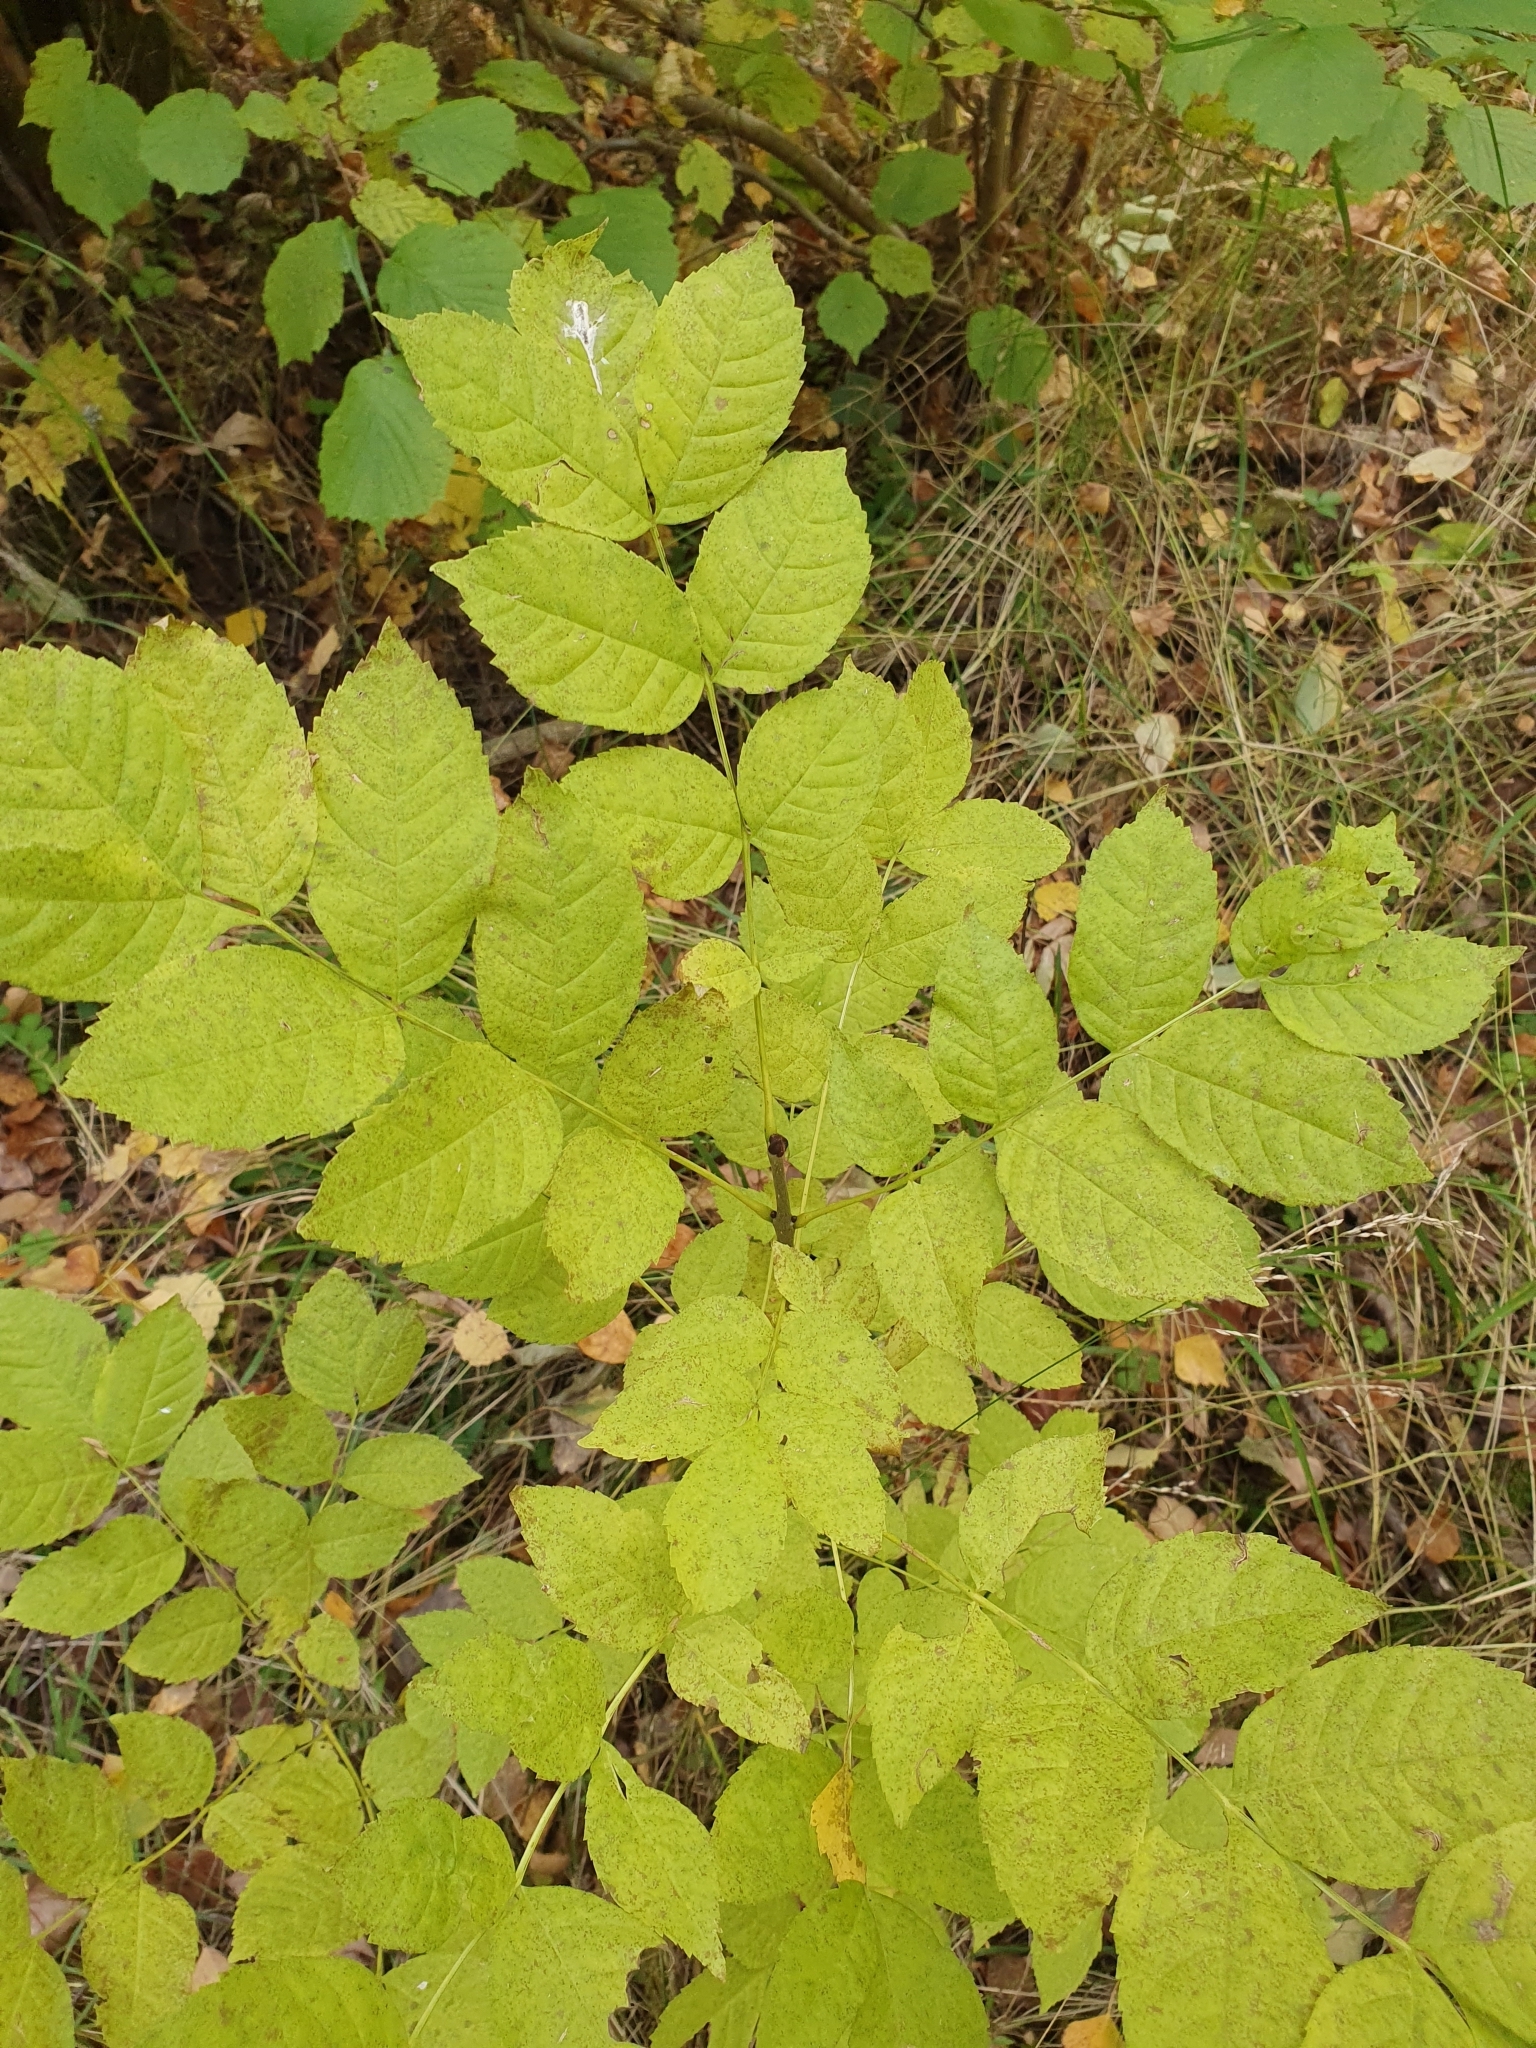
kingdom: Plantae
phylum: Tracheophyta
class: Magnoliopsida
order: Lamiales
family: Oleaceae
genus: Fraxinus
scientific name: Fraxinus excelsior
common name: European ash
